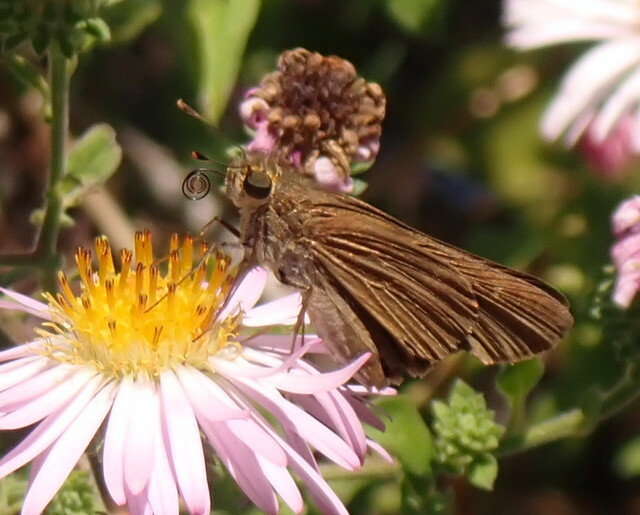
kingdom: Animalia
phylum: Arthropoda
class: Insecta
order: Lepidoptera
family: Hesperiidae
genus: Panoquina
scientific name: Panoquina ocola
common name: Ocola skipper
